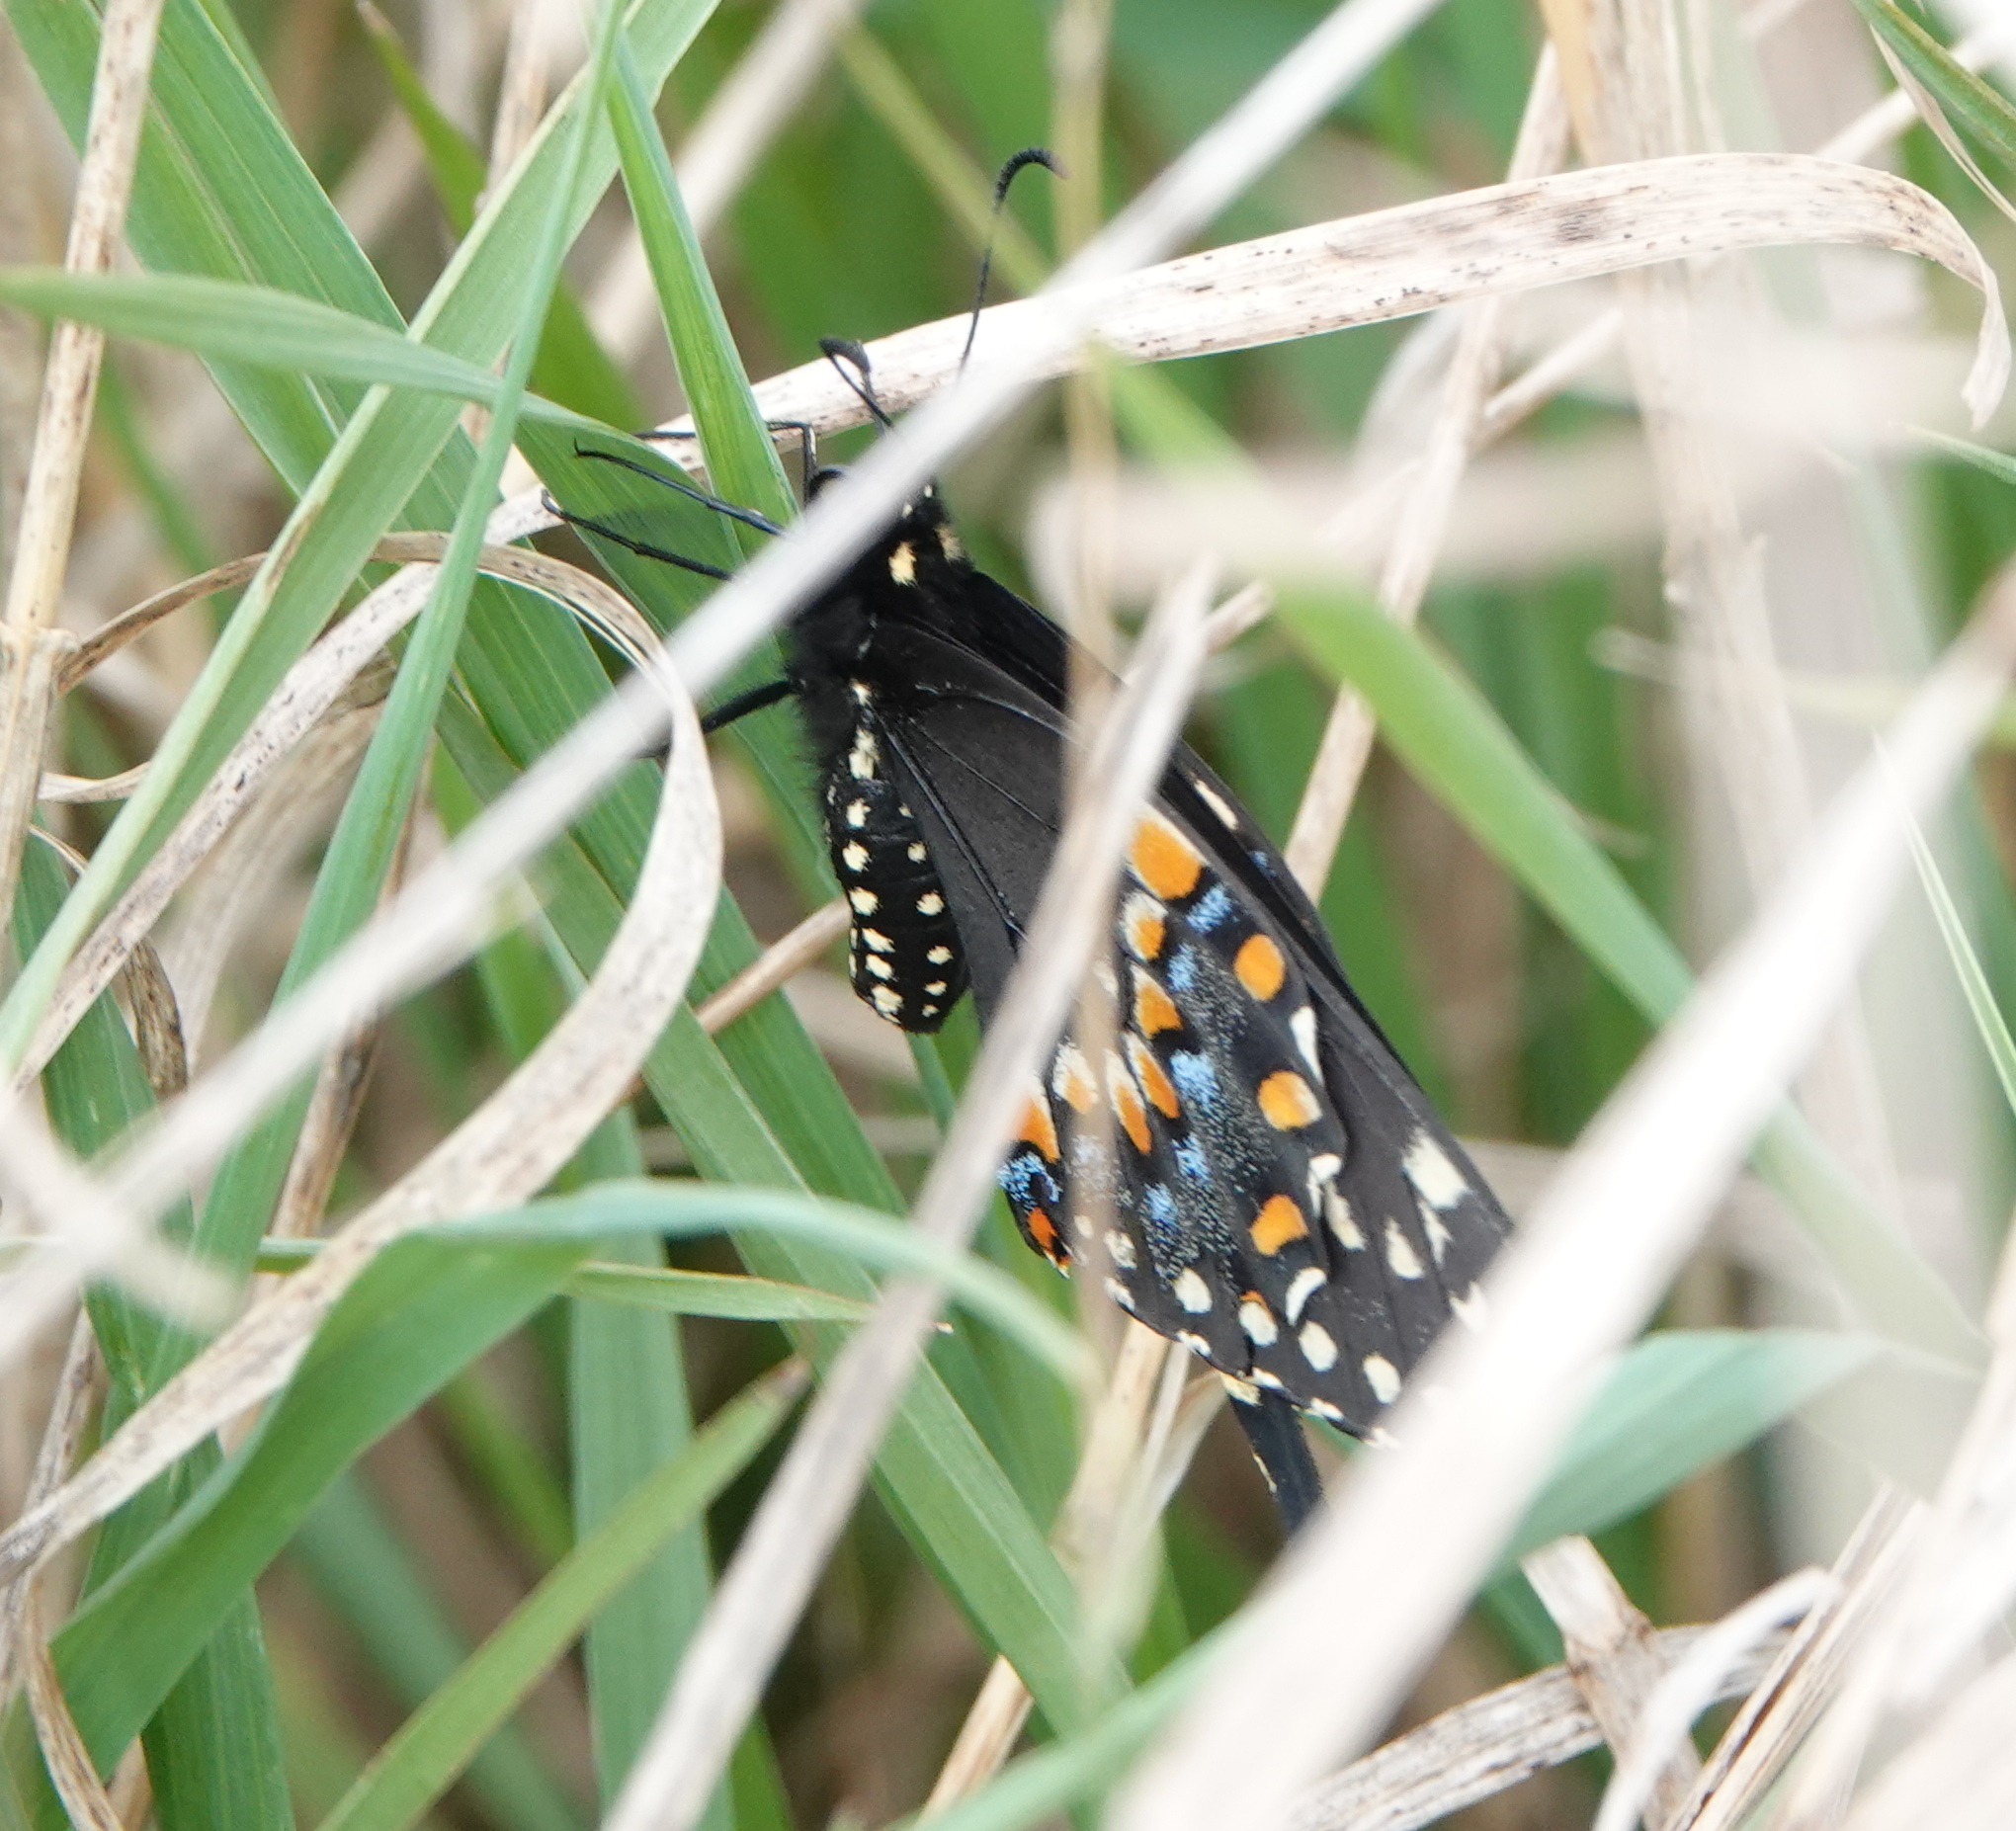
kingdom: Animalia
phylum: Arthropoda
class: Insecta
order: Lepidoptera
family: Papilionidae
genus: Papilio
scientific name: Papilio polyxenes
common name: Black swallowtail
